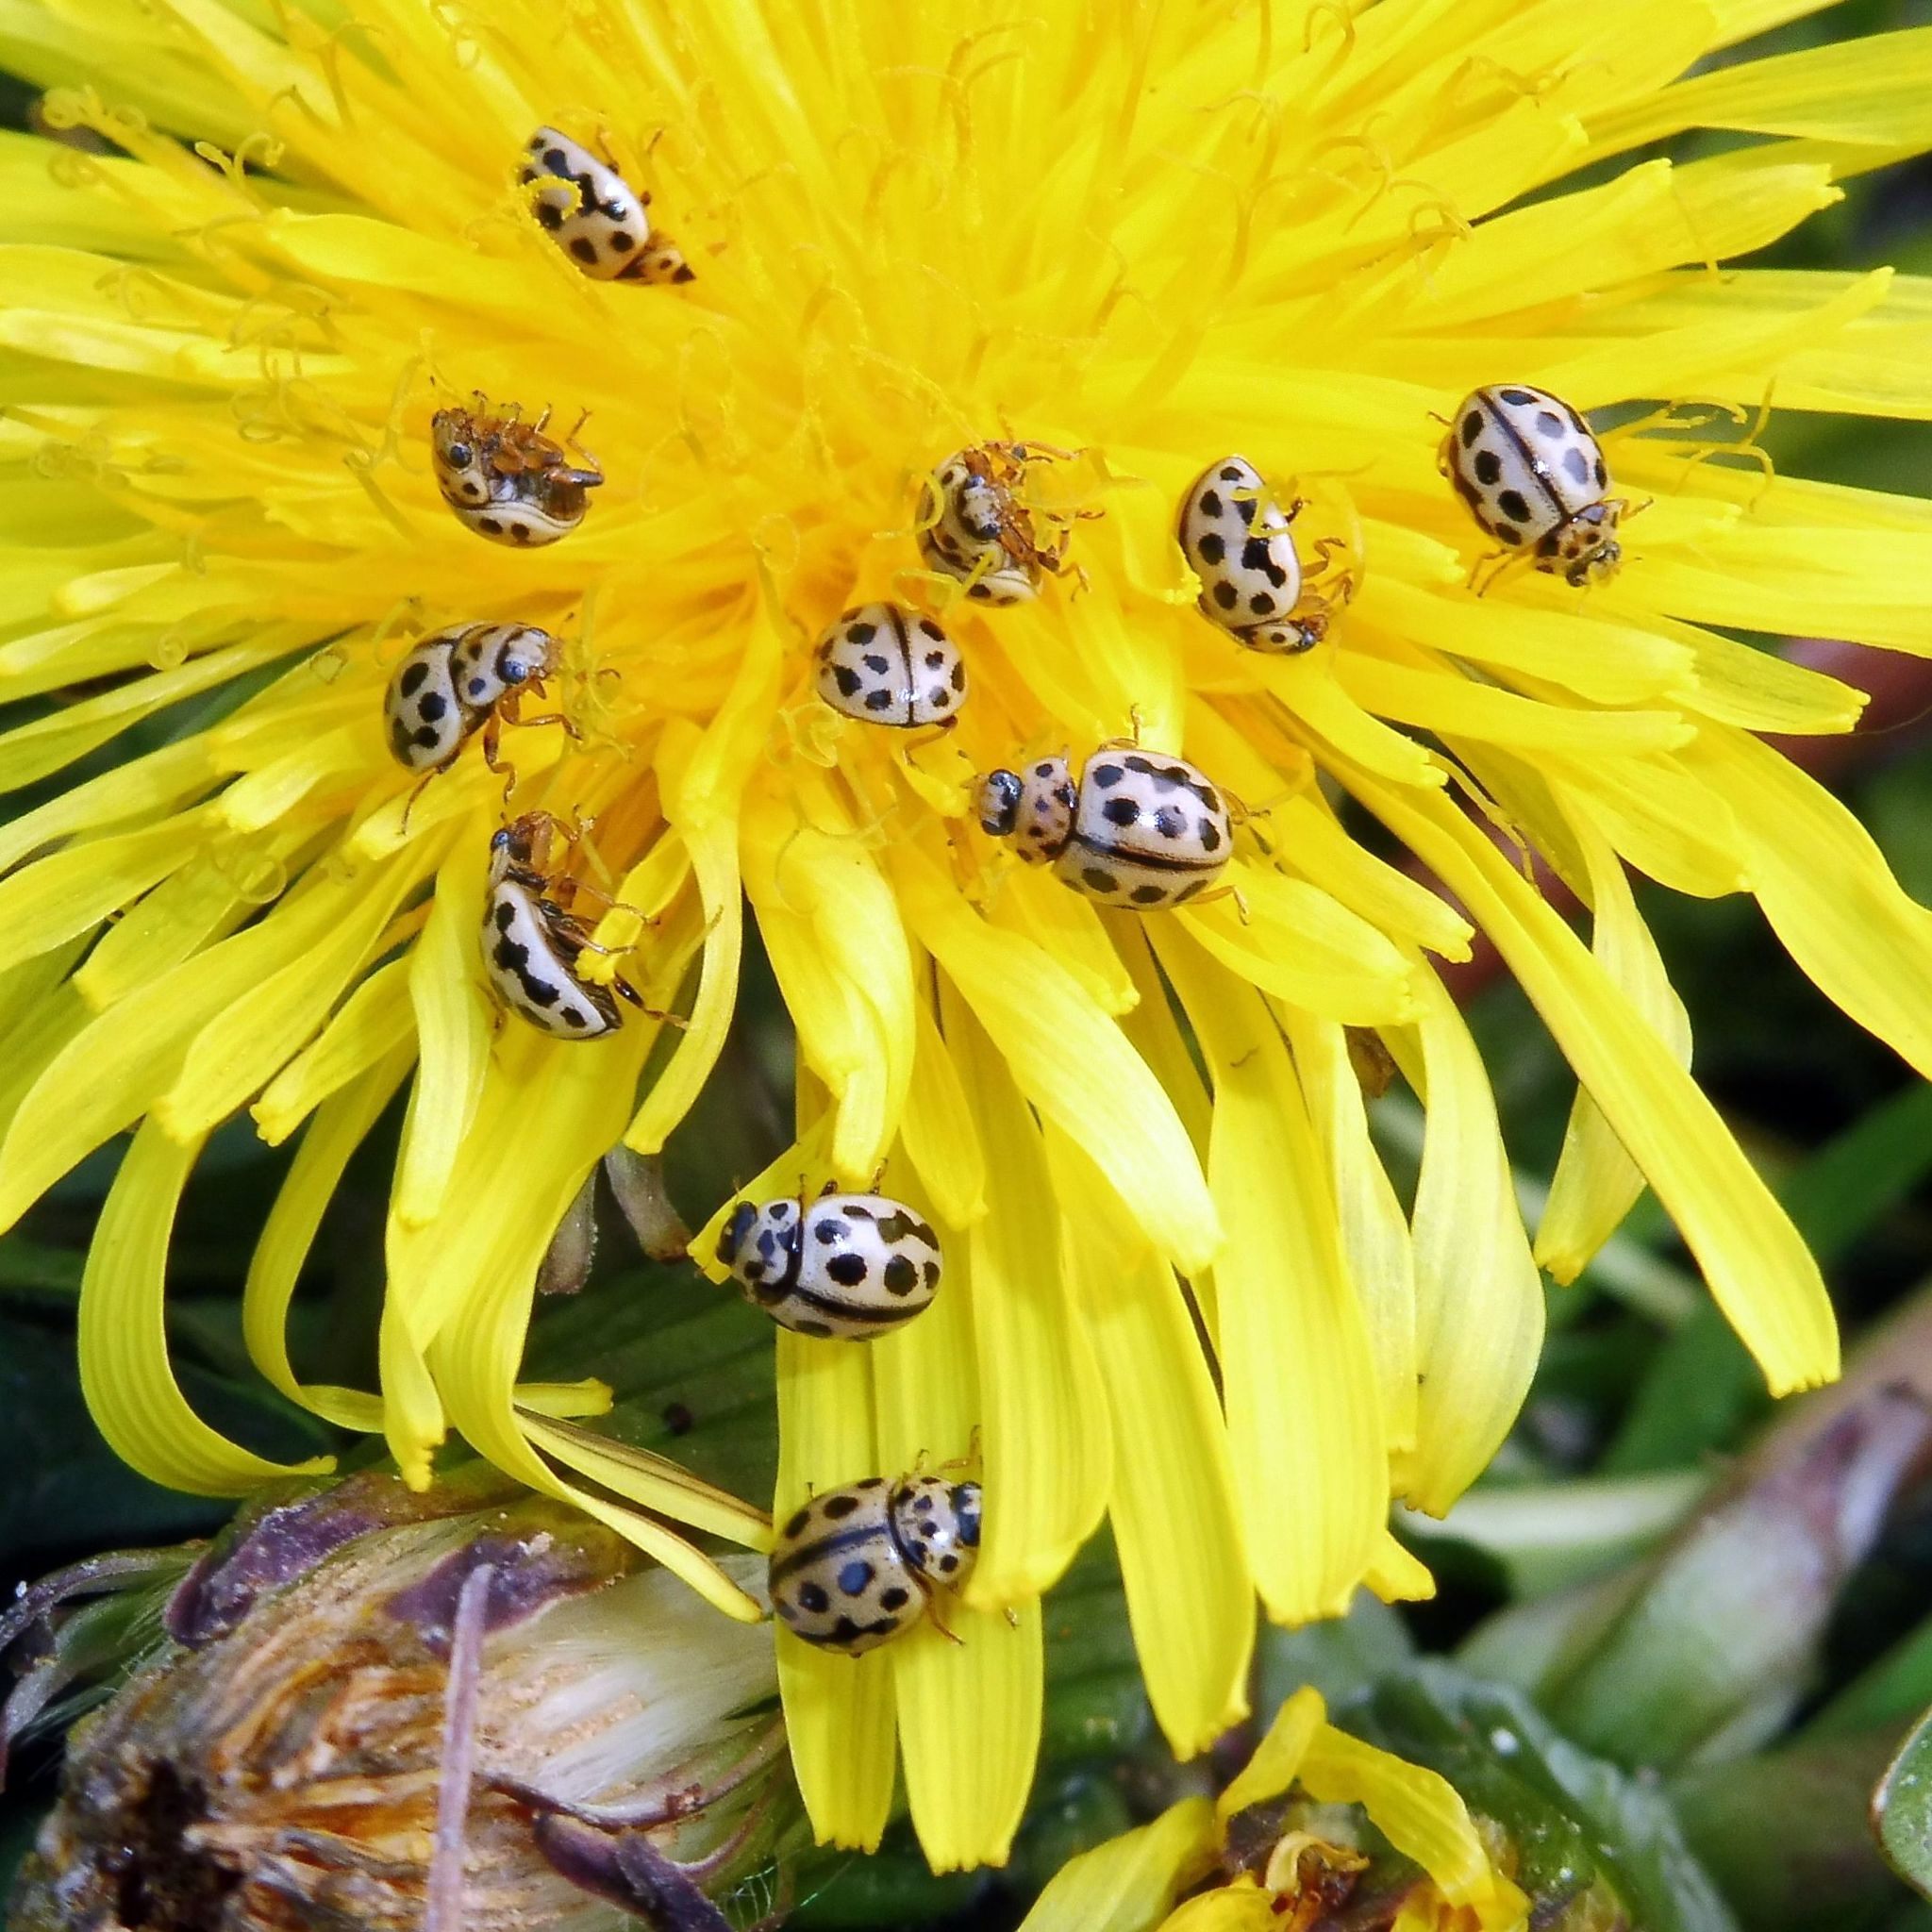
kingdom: Animalia
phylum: Arthropoda
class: Insecta
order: Coleoptera
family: Coccinellidae
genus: Tytthaspis
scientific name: Tytthaspis sedecimpunctata
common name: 16-spot ladybird
